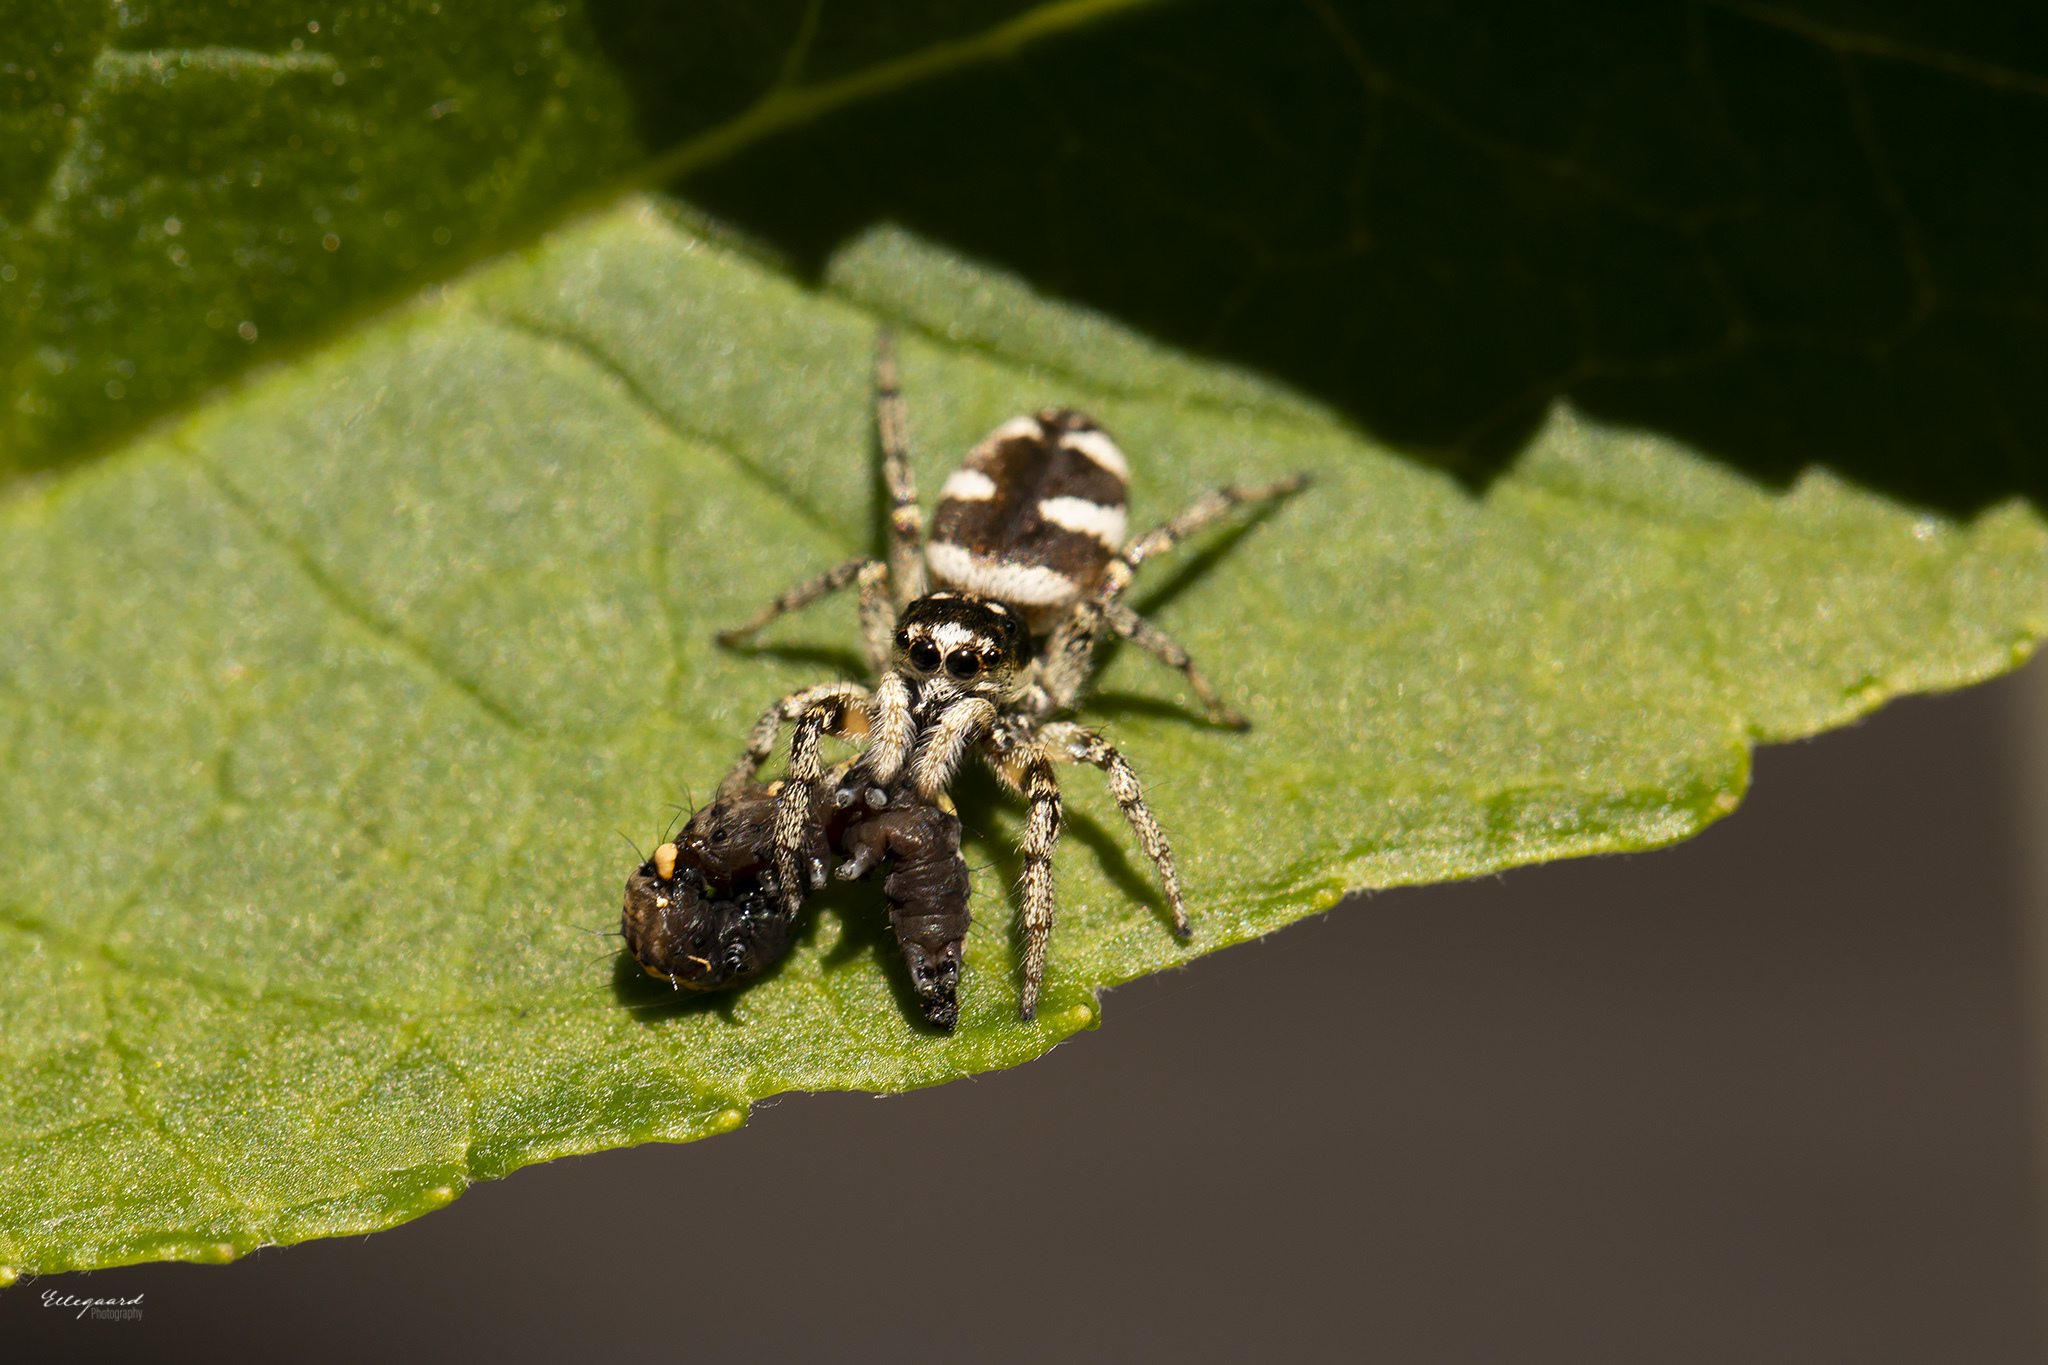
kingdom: Animalia
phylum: Arthropoda
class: Arachnida
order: Araneae
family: Salticidae
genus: Salticus
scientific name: Salticus scenicus
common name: Zebra jumper
